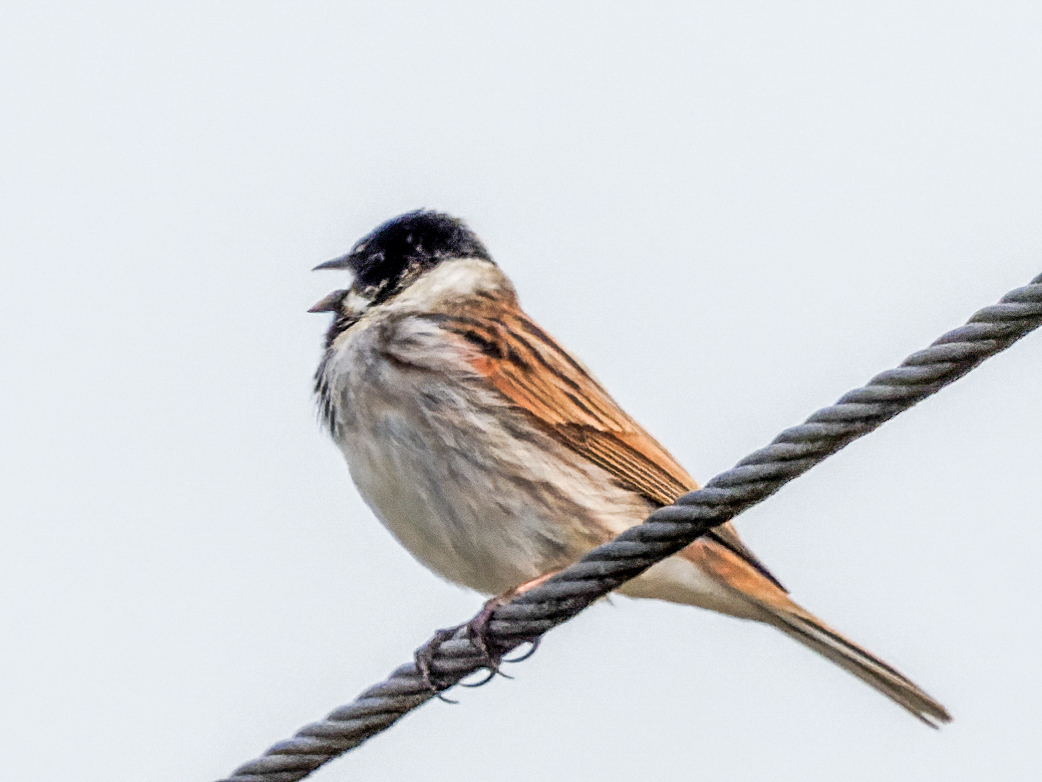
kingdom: Animalia
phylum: Chordata
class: Aves
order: Passeriformes
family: Emberizidae
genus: Emberiza
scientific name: Emberiza schoeniclus
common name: Reed bunting
